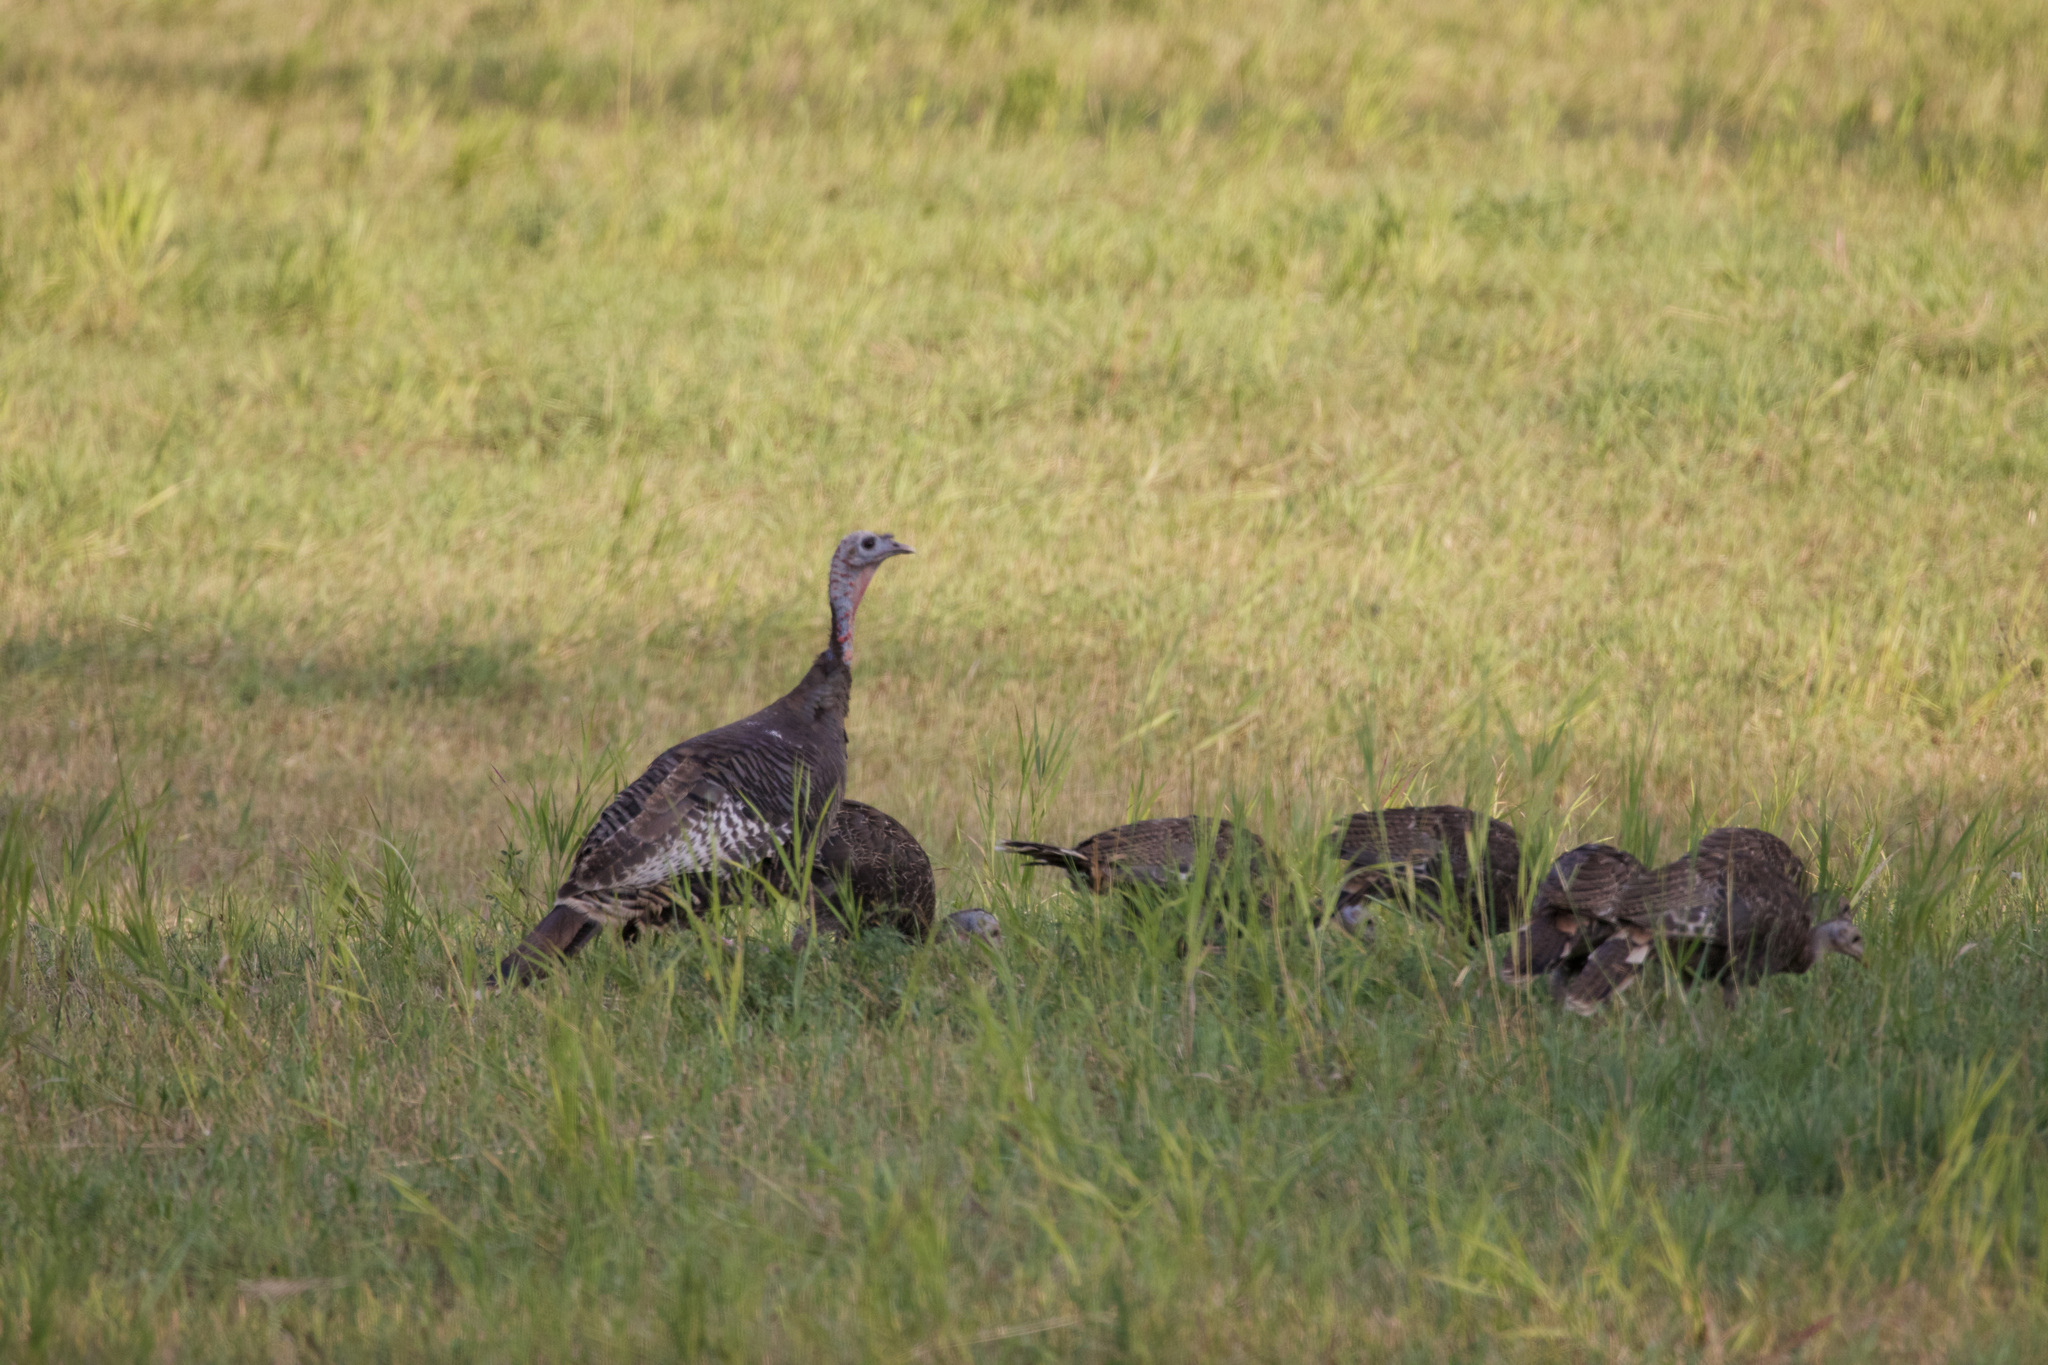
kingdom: Animalia
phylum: Chordata
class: Aves
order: Galliformes
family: Phasianidae
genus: Meleagris
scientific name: Meleagris gallopavo
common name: Wild turkey
